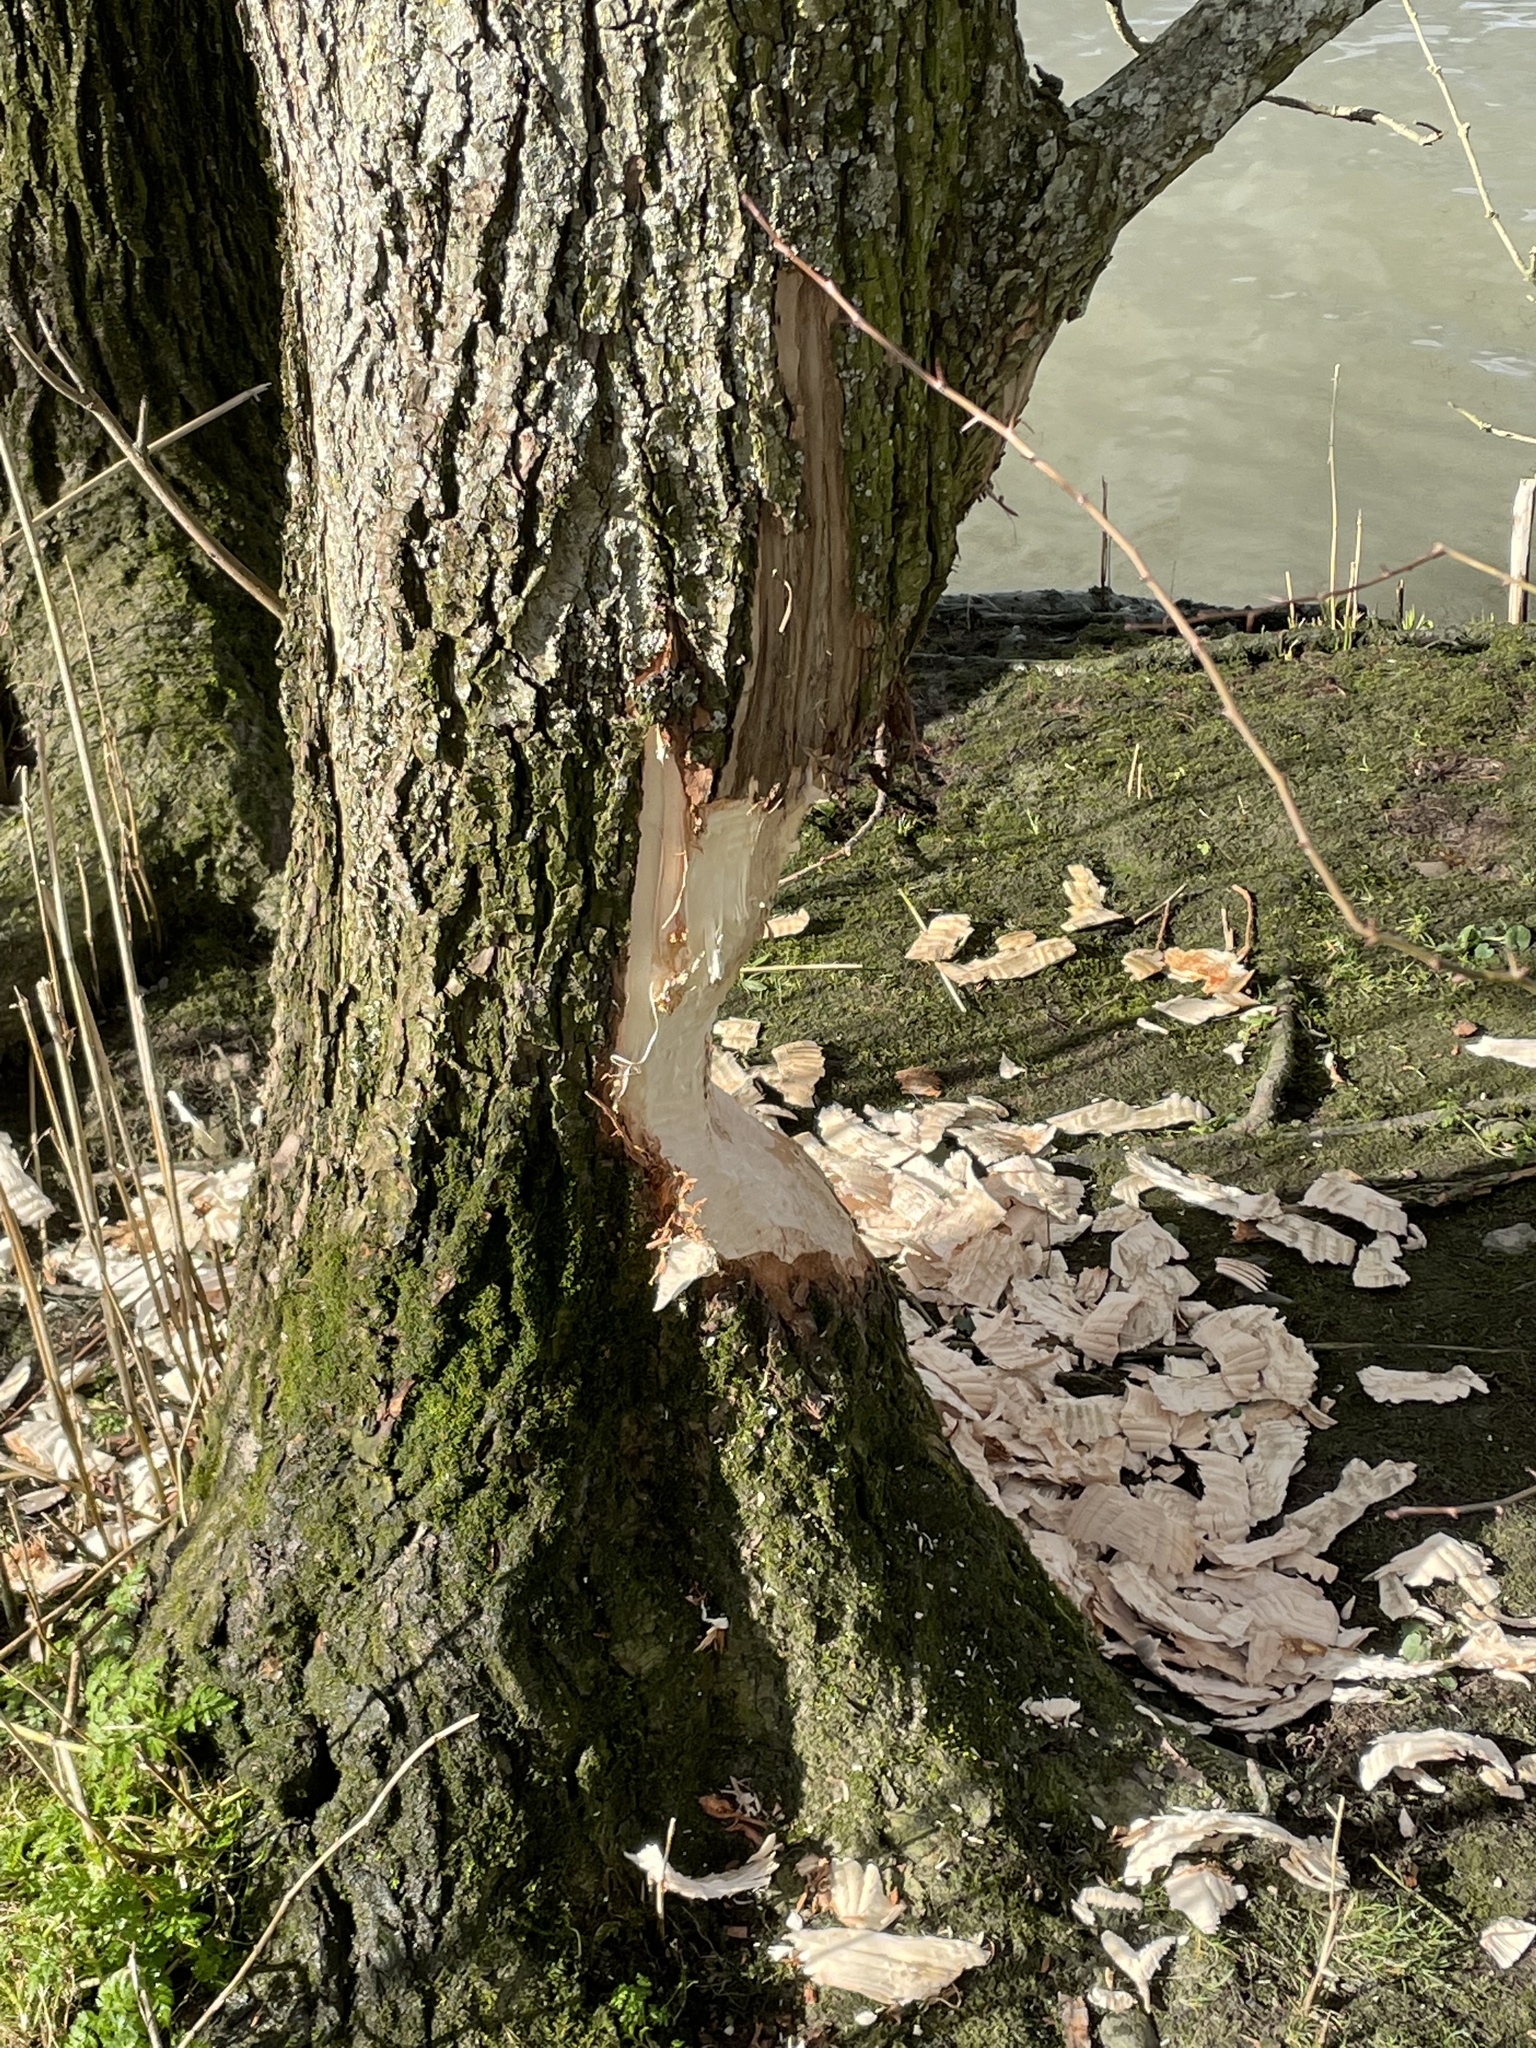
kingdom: Animalia
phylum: Chordata
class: Mammalia
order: Rodentia
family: Castoridae
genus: Castor
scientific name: Castor fiber
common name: Eurasian beaver
